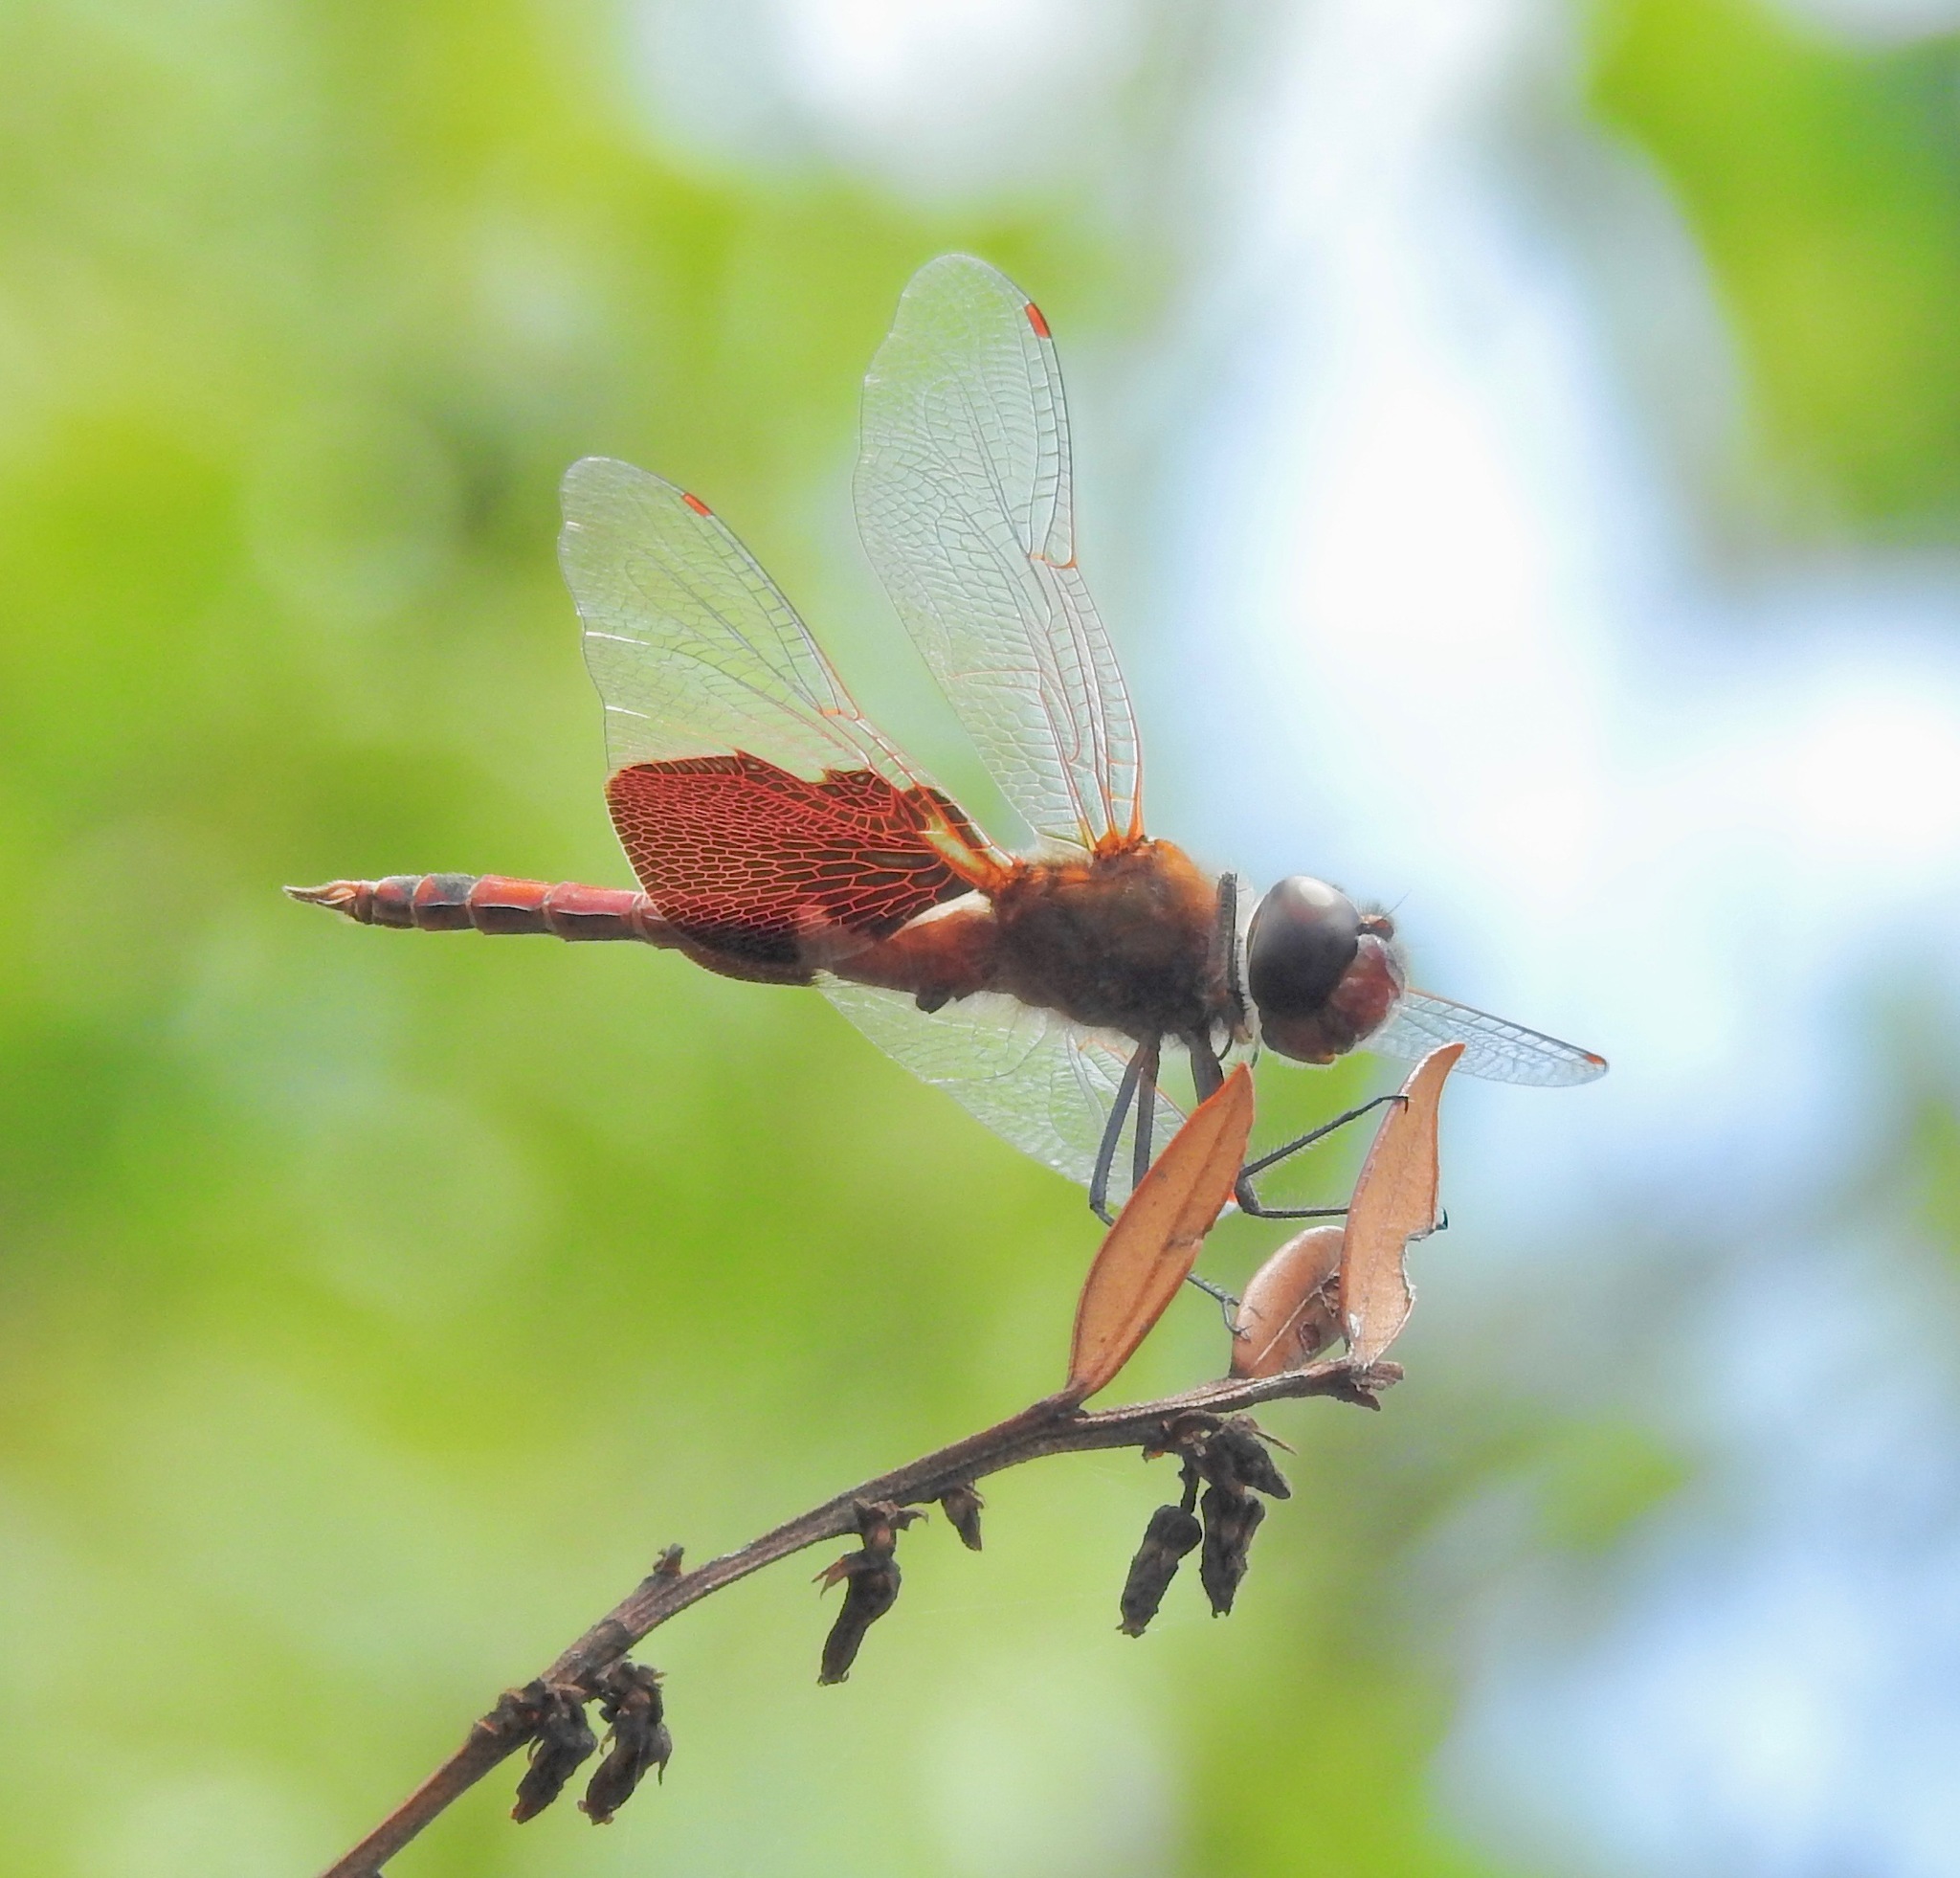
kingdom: Animalia
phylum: Arthropoda
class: Insecta
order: Odonata
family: Libellulidae
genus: Tramea
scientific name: Tramea carolina
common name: Carolina saddlebags
